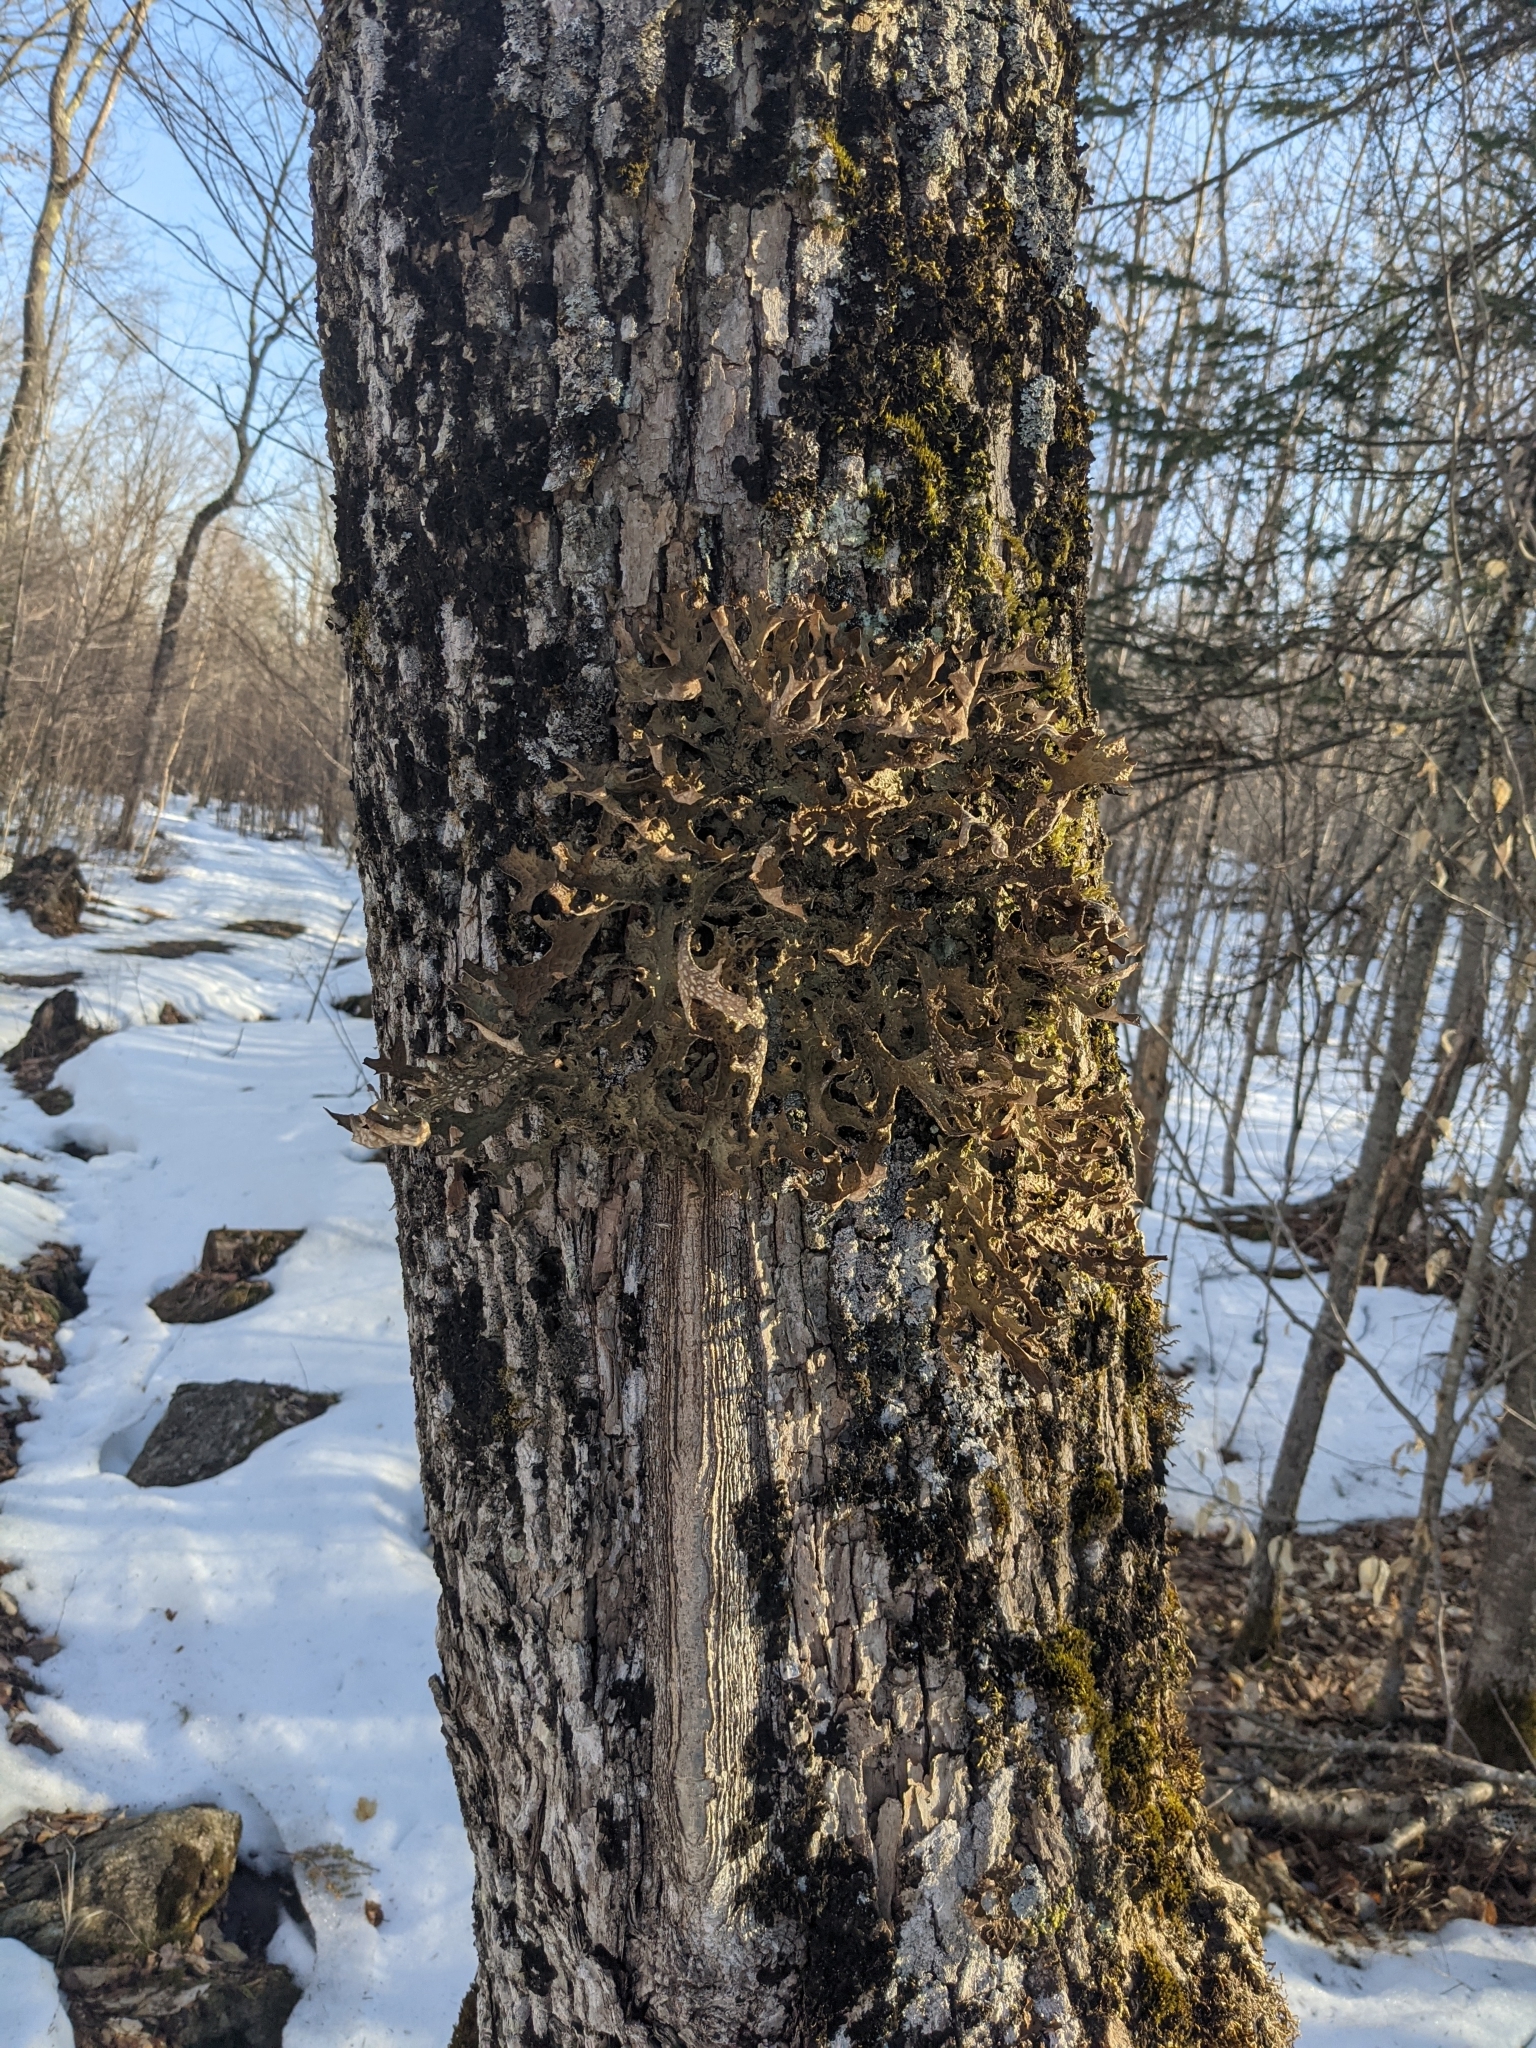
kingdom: Fungi
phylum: Ascomycota
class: Lecanoromycetes
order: Peltigerales
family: Lobariaceae
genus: Lobaria
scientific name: Lobaria pulmonaria
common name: Lungwort
